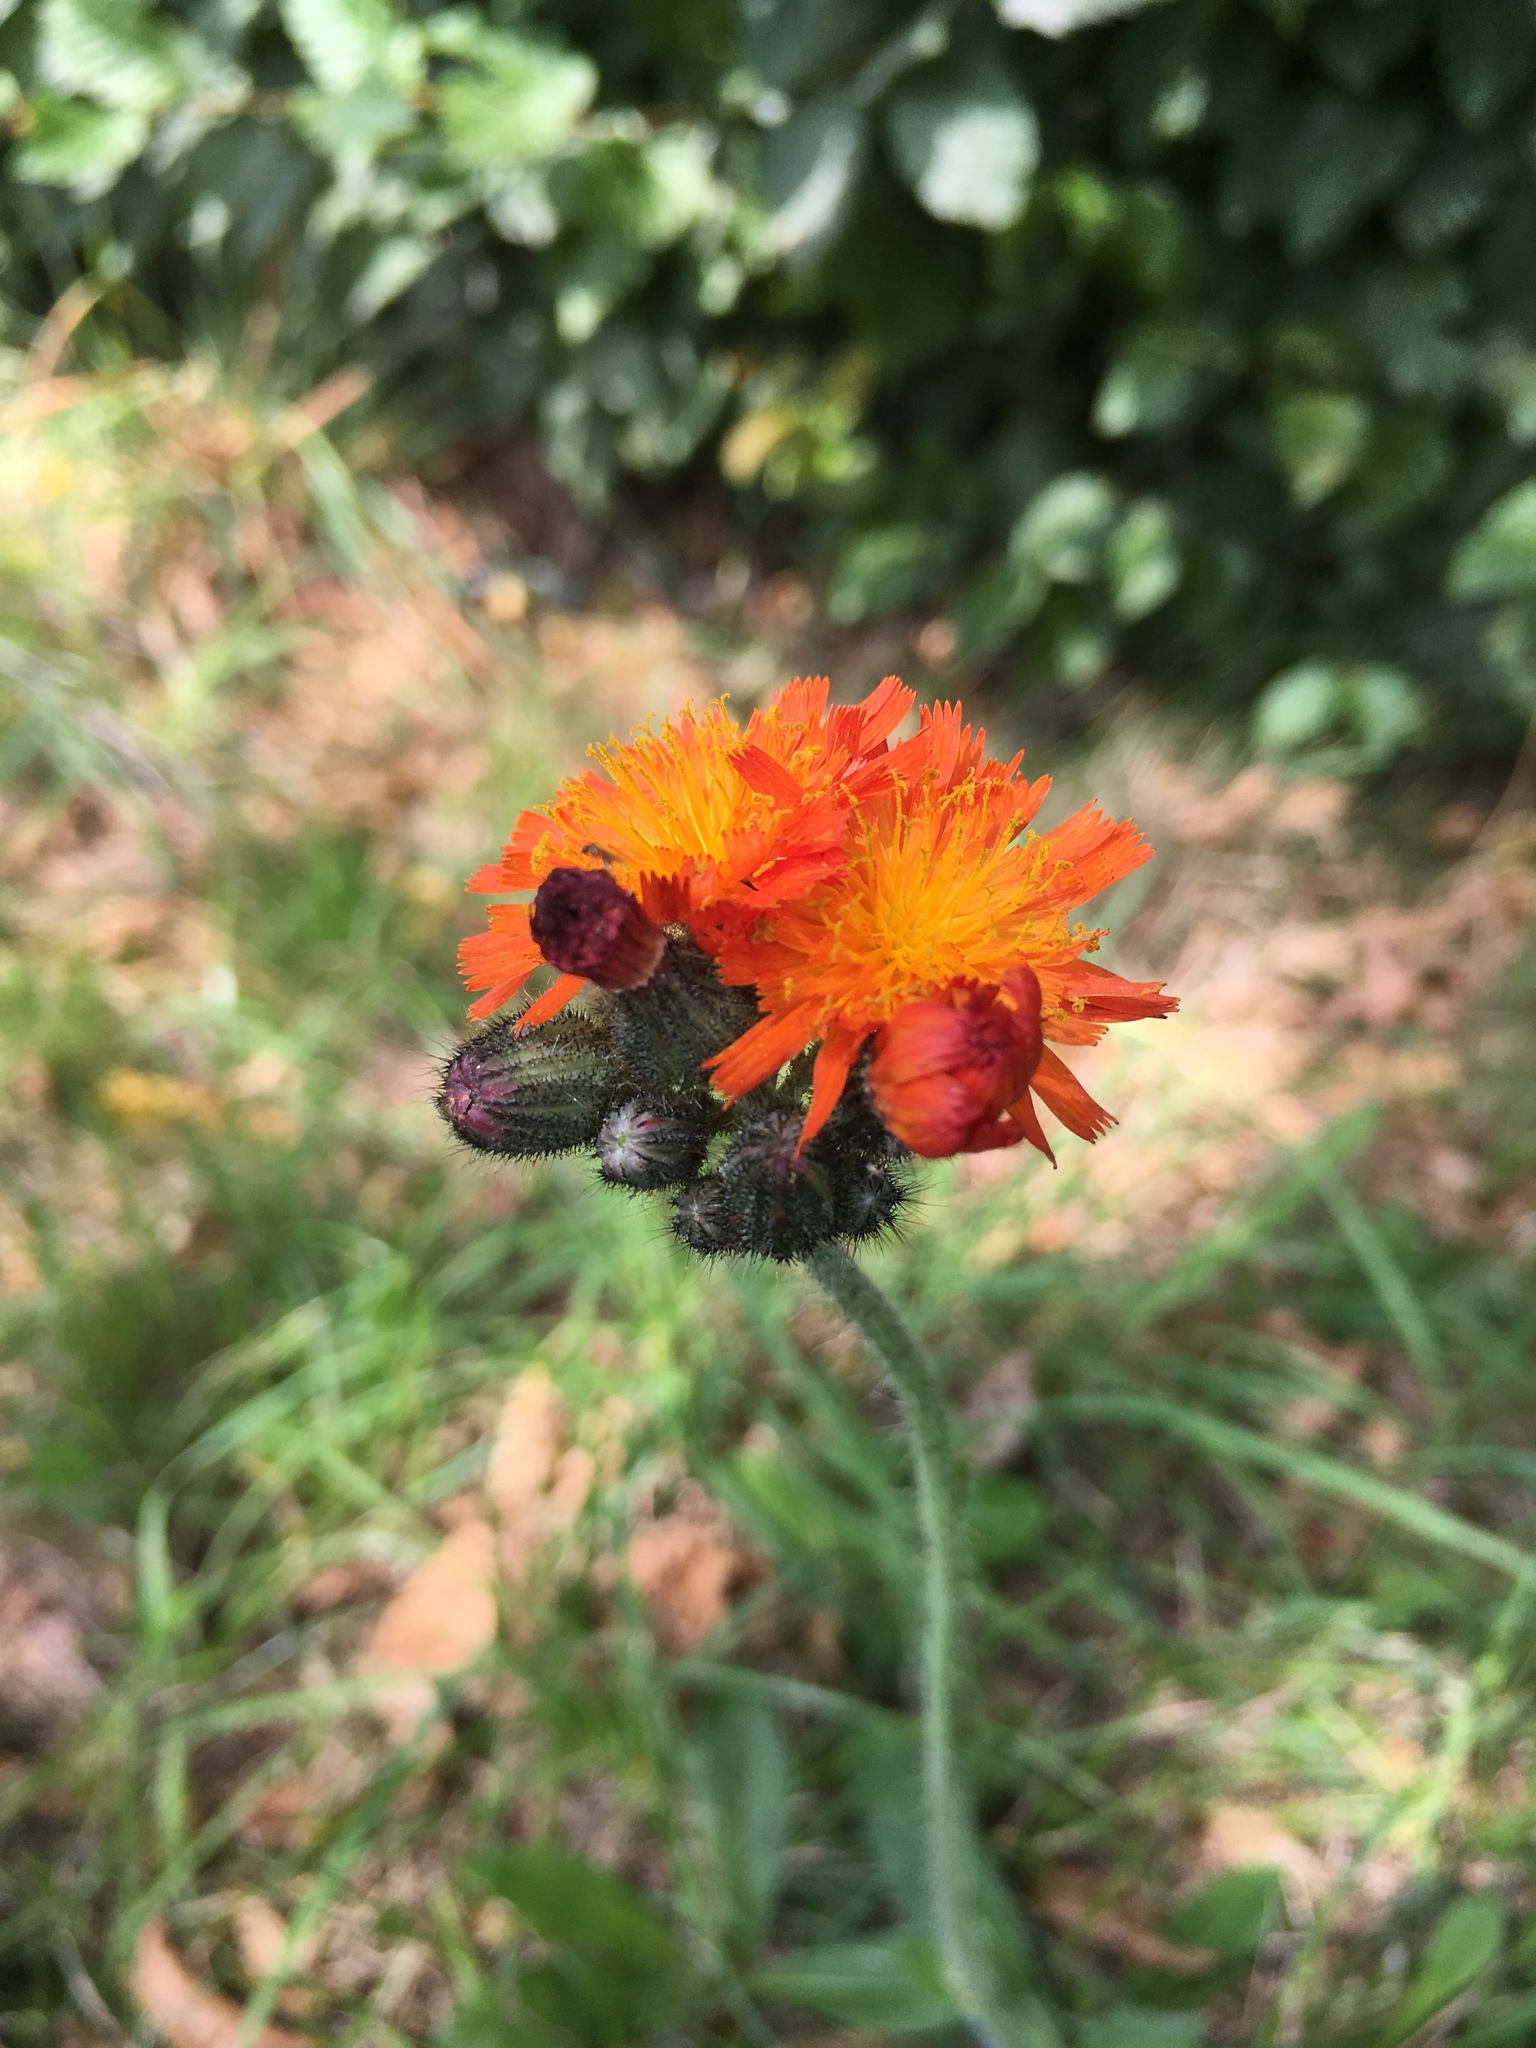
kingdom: Plantae
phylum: Tracheophyta
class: Magnoliopsida
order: Asterales
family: Asteraceae
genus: Pilosella
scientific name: Pilosella aurantiaca
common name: Fox-and-cubs
